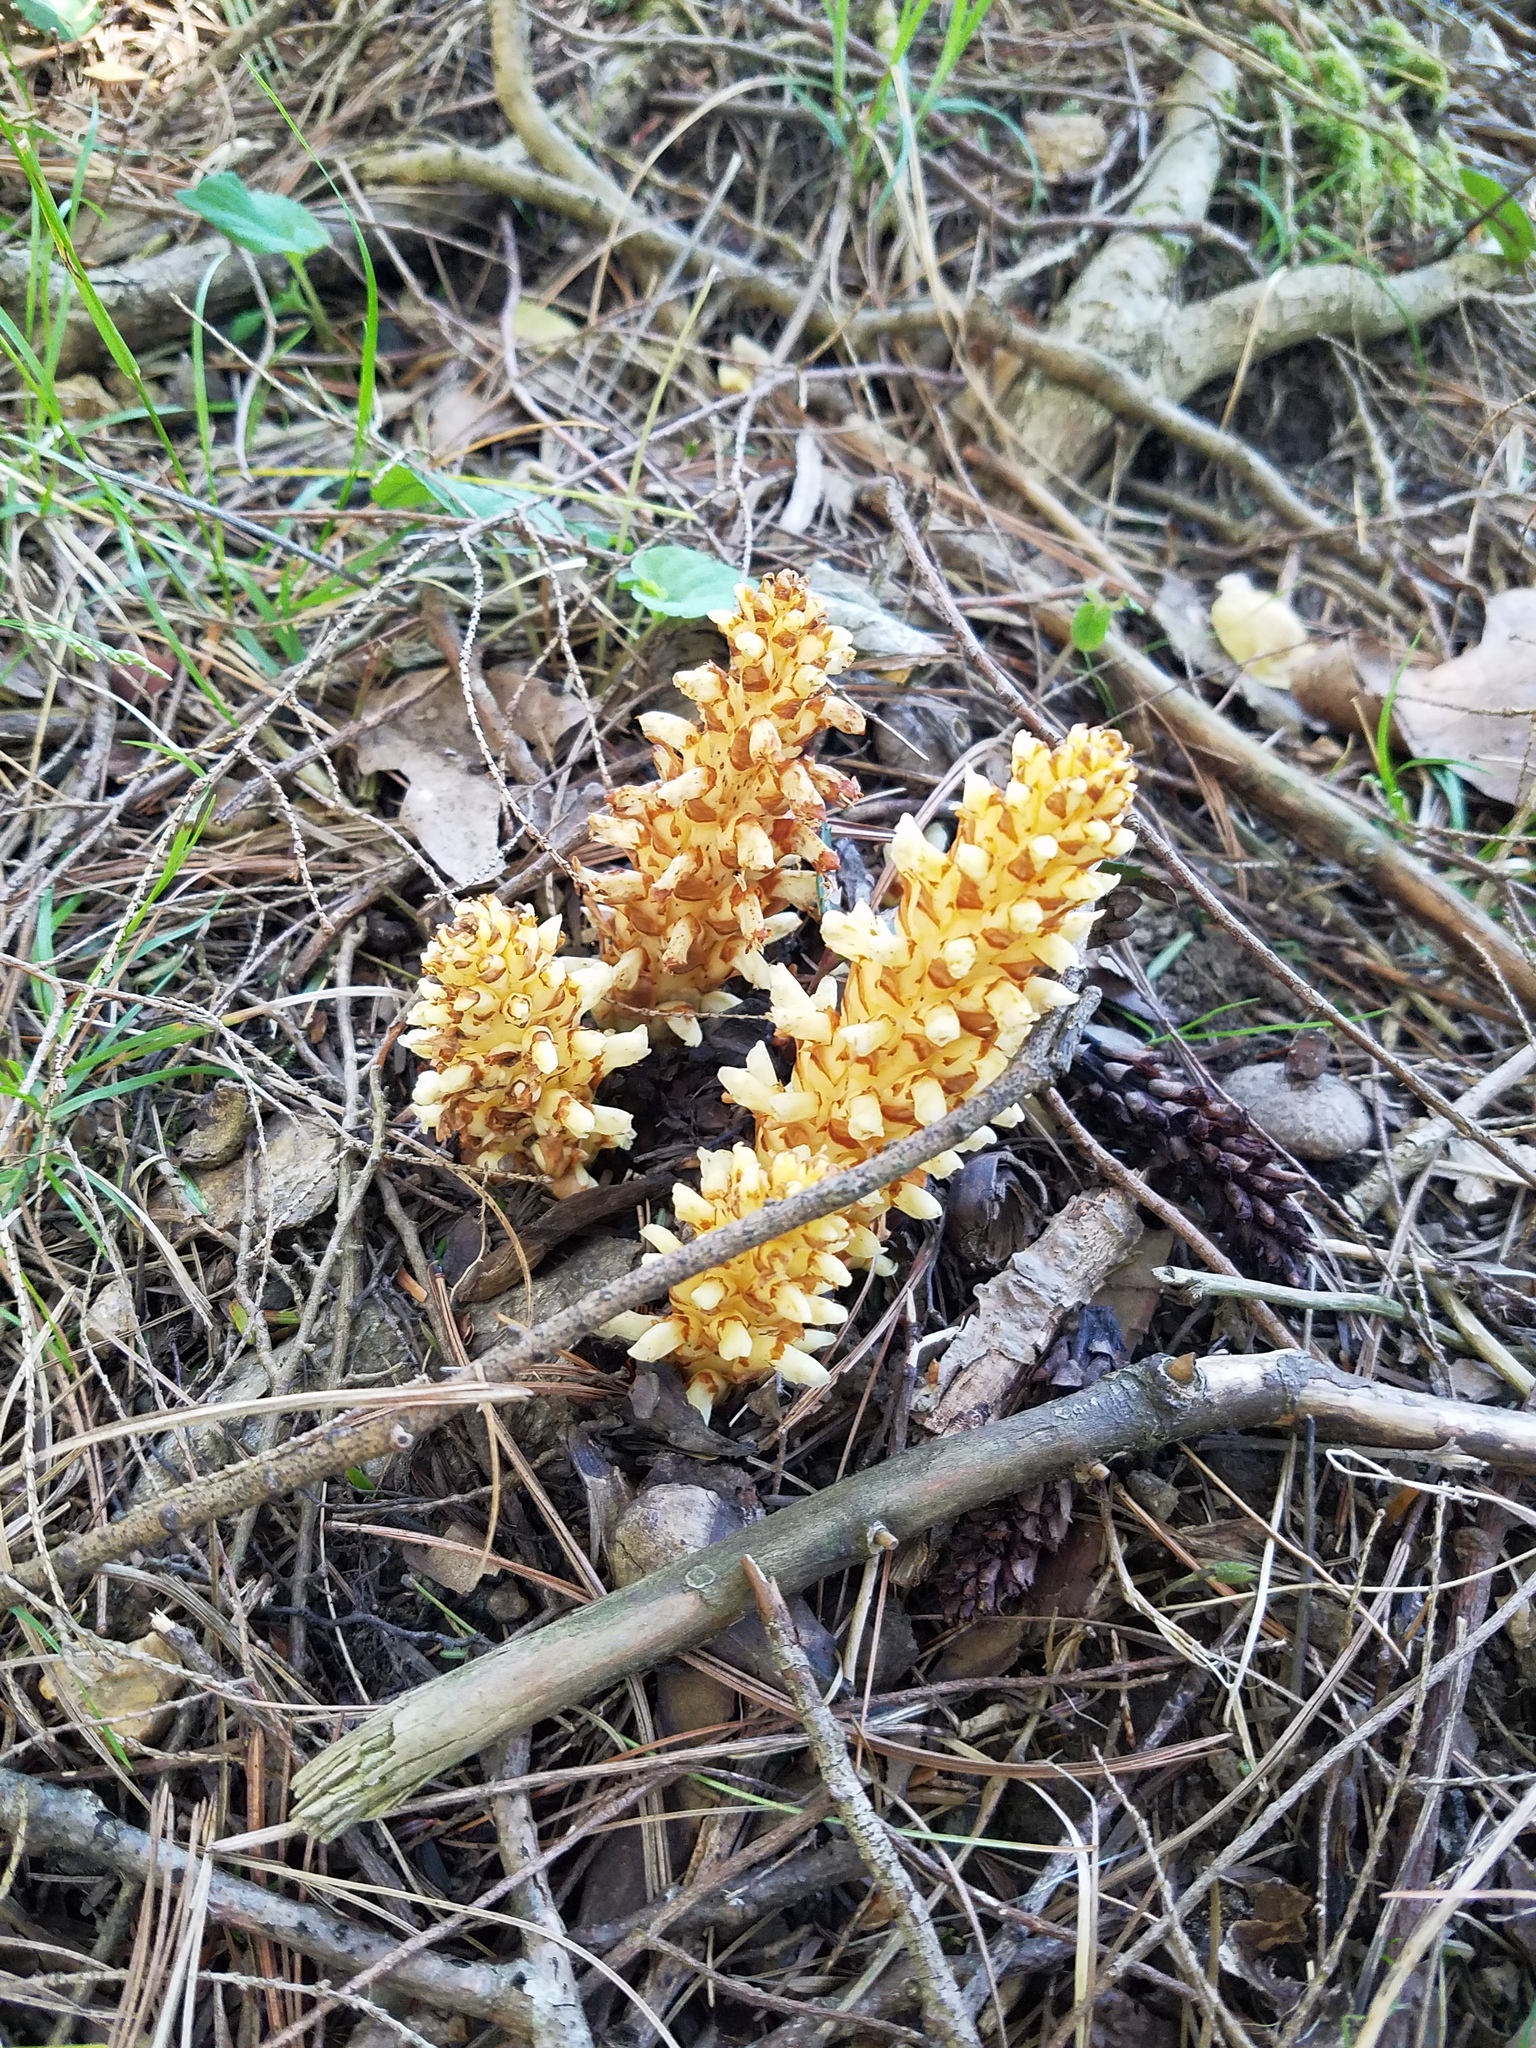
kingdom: Plantae
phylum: Tracheophyta
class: Magnoliopsida
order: Lamiales
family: Orobanchaceae
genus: Conopholis
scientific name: Conopholis americana
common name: American cancer-root
